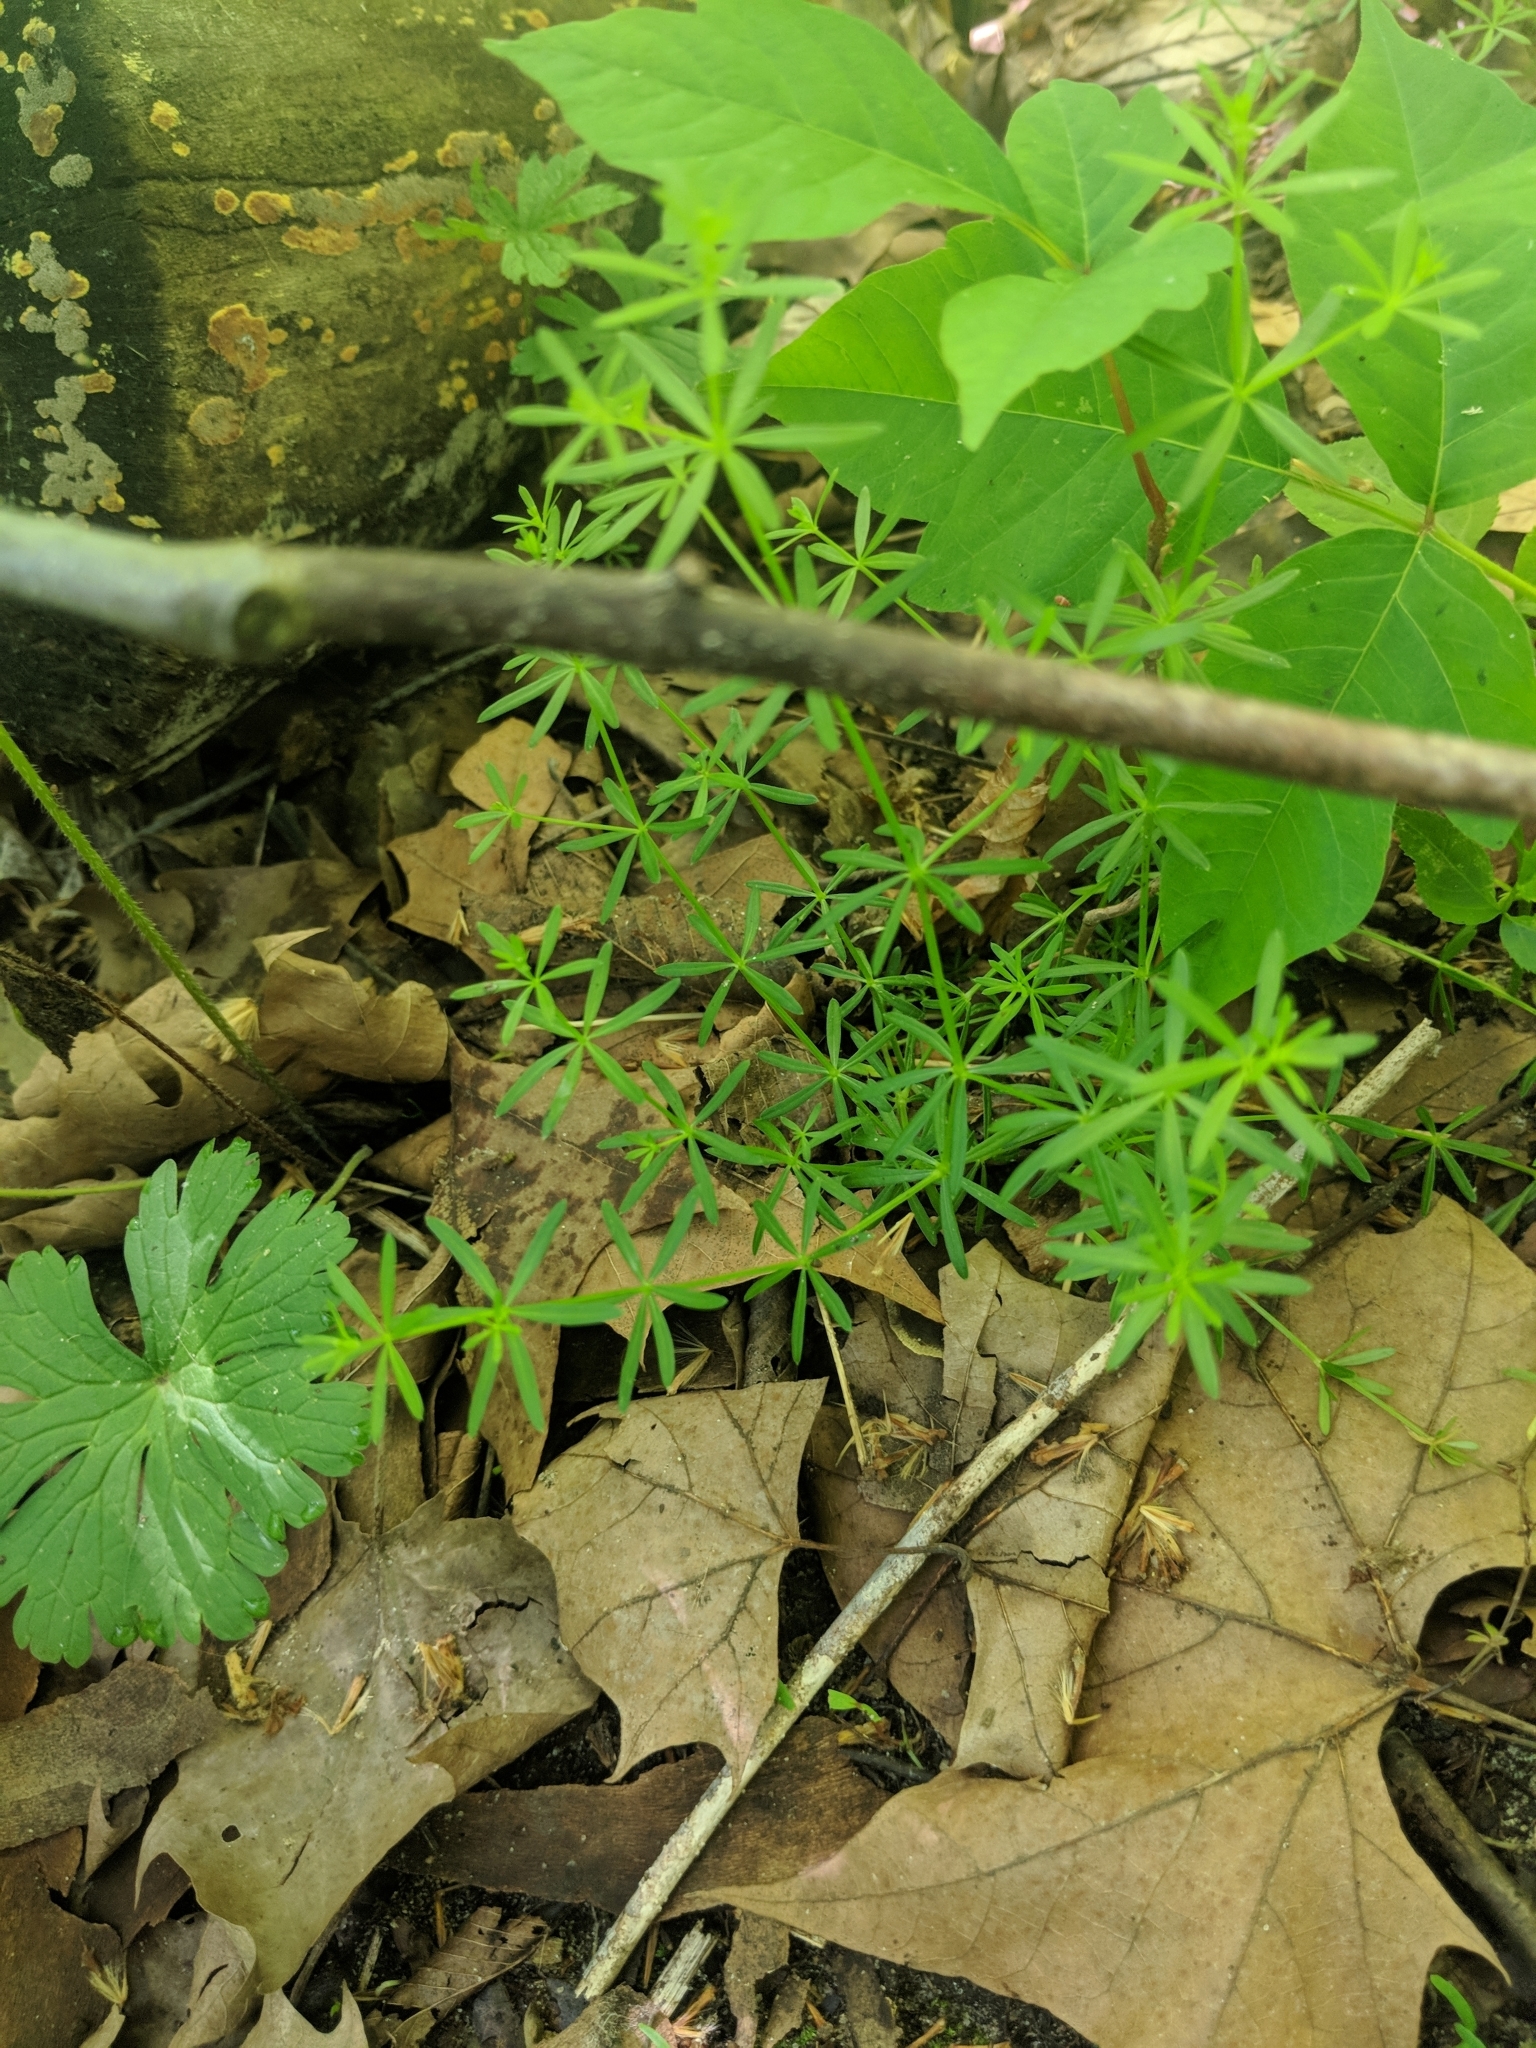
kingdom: Plantae
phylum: Tracheophyta
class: Magnoliopsida
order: Gentianales
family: Rubiaceae
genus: Galium
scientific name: Galium concinnum
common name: Shining bedstraw
